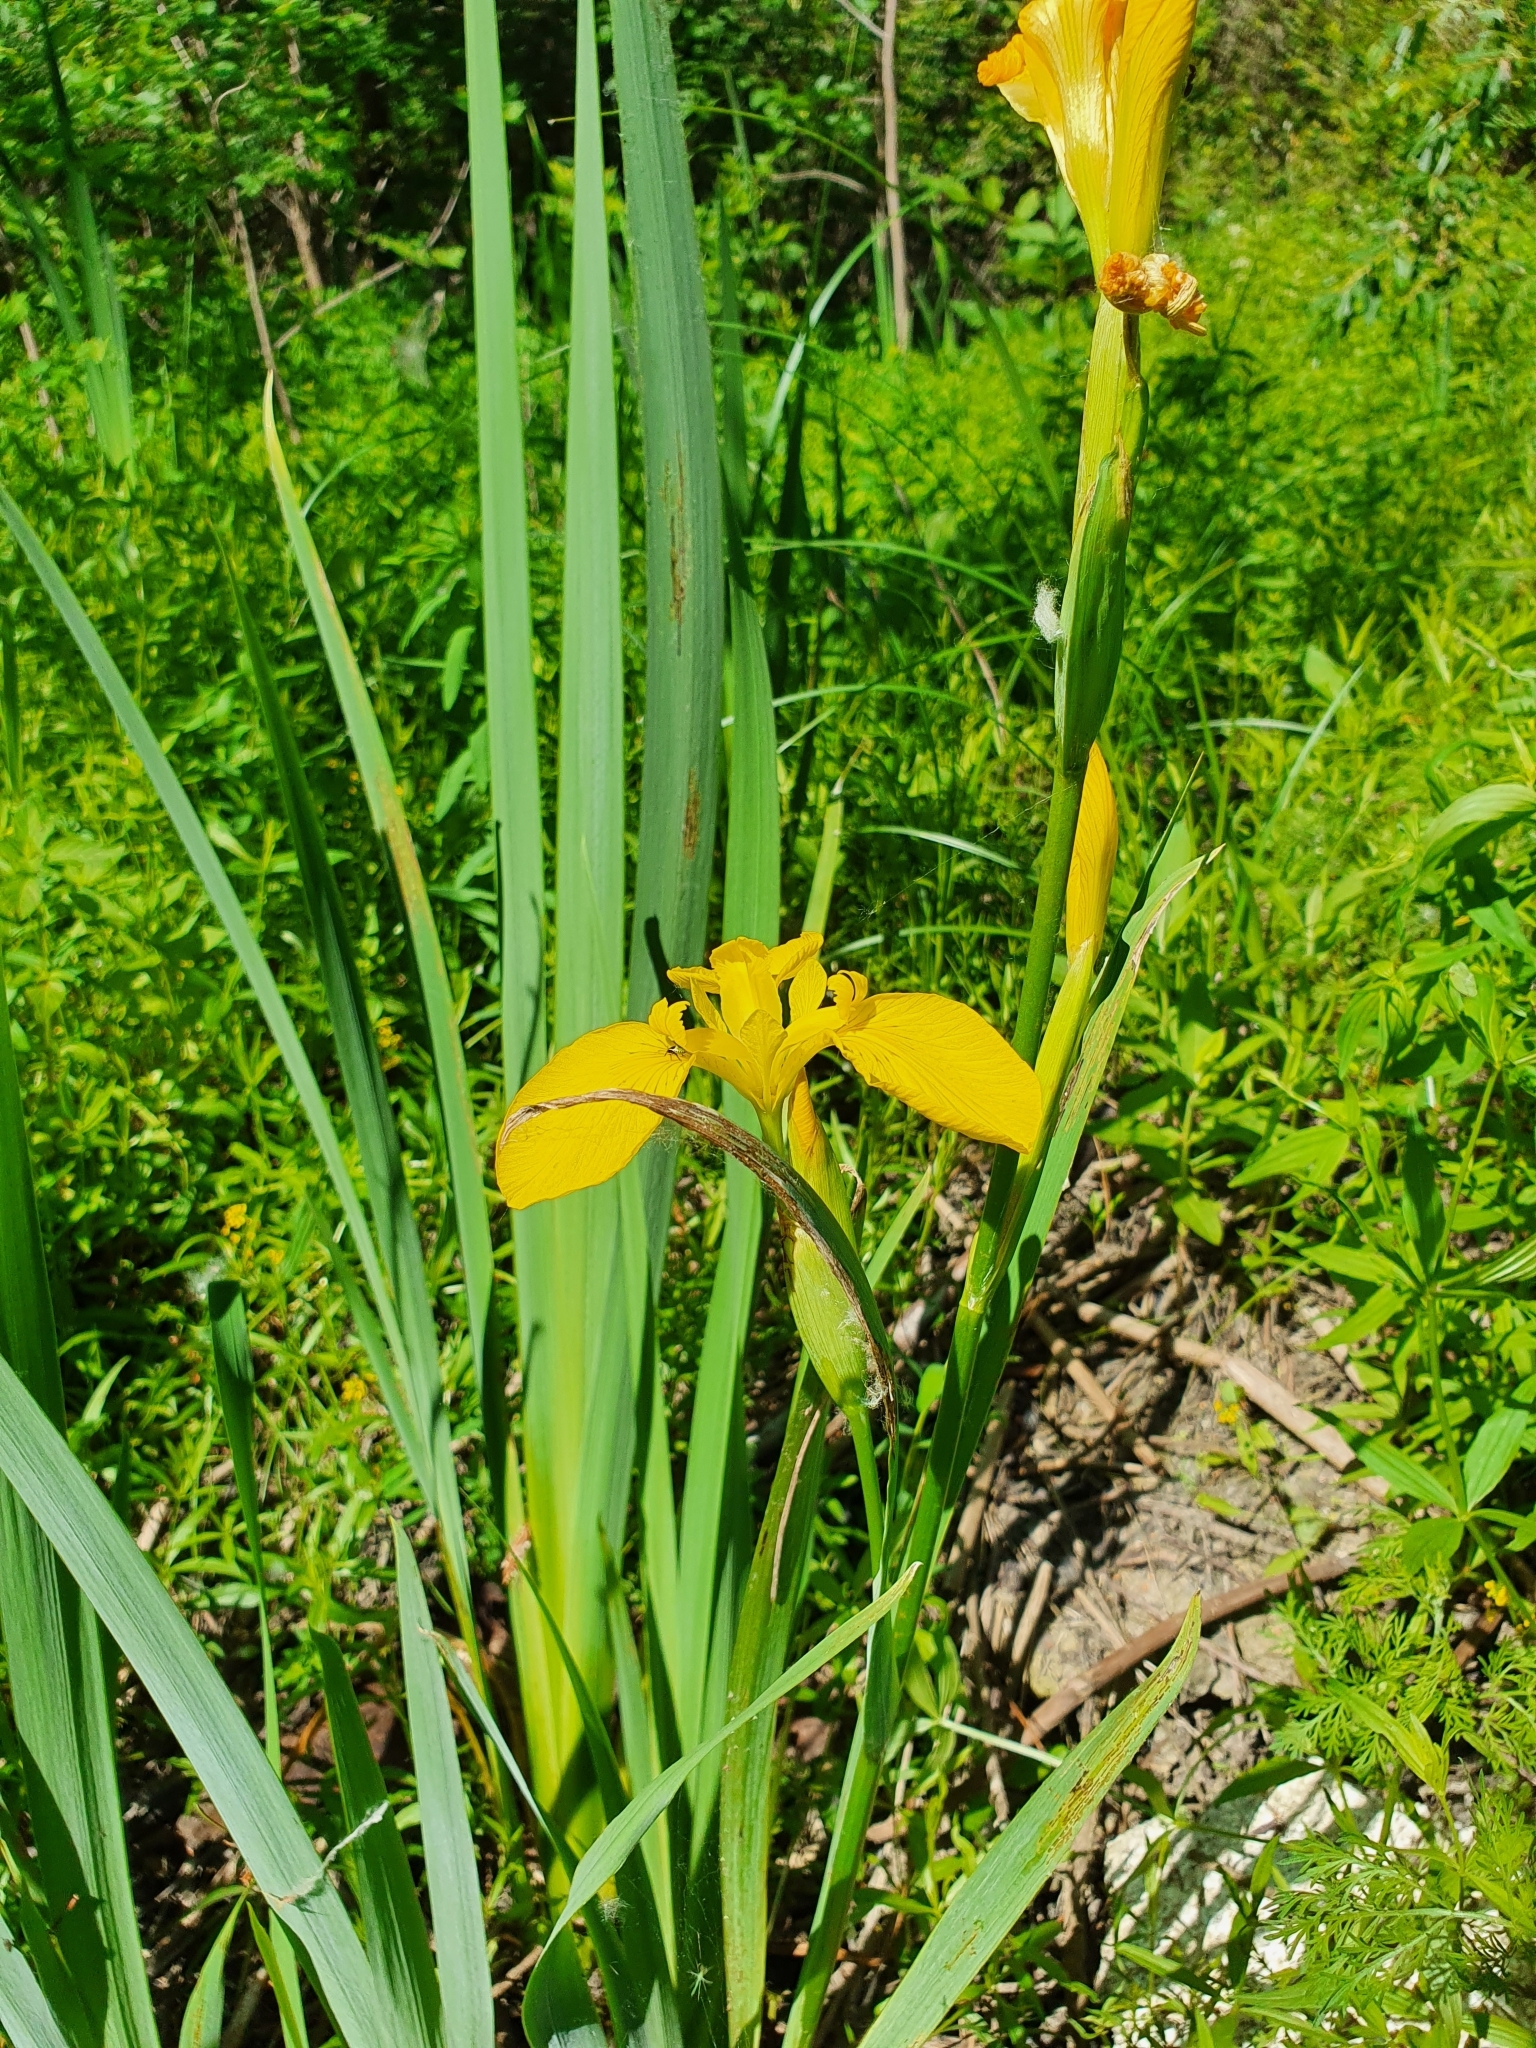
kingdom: Plantae
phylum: Tracheophyta
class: Liliopsida
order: Asparagales
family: Iridaceae
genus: Iris
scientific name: Iris pseudacorus
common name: Yellow flag
